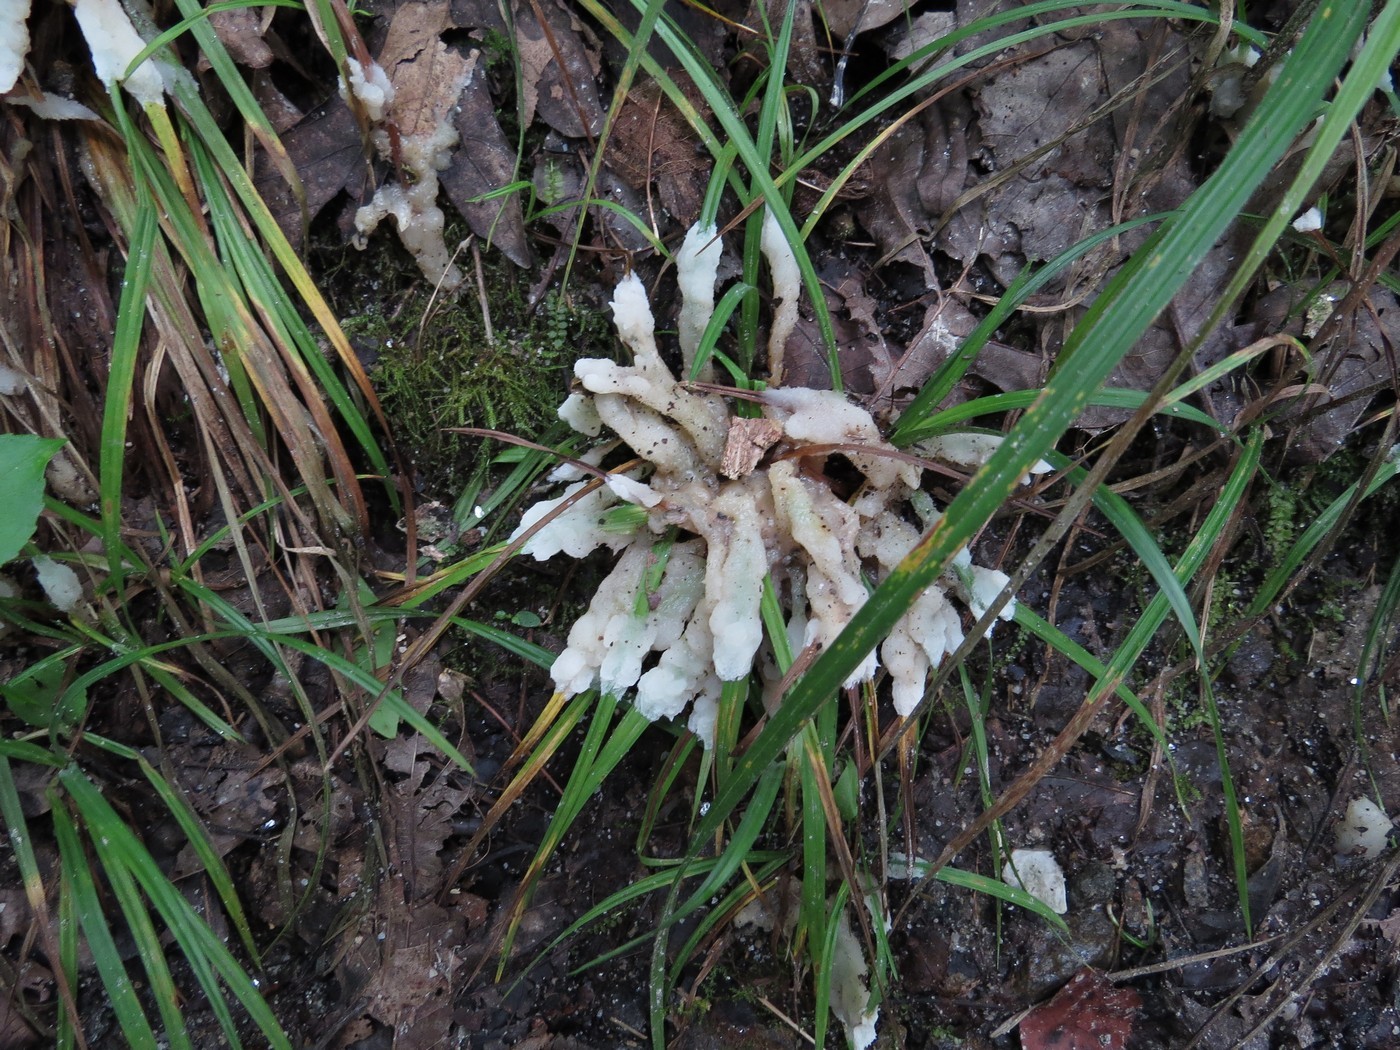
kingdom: Fungi
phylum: Basidiomycota
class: Agaricomycetes
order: Sebacinales
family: Sebacinaceae
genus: Sebacina
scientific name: Sebacina incrustans
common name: Enveloping crust
